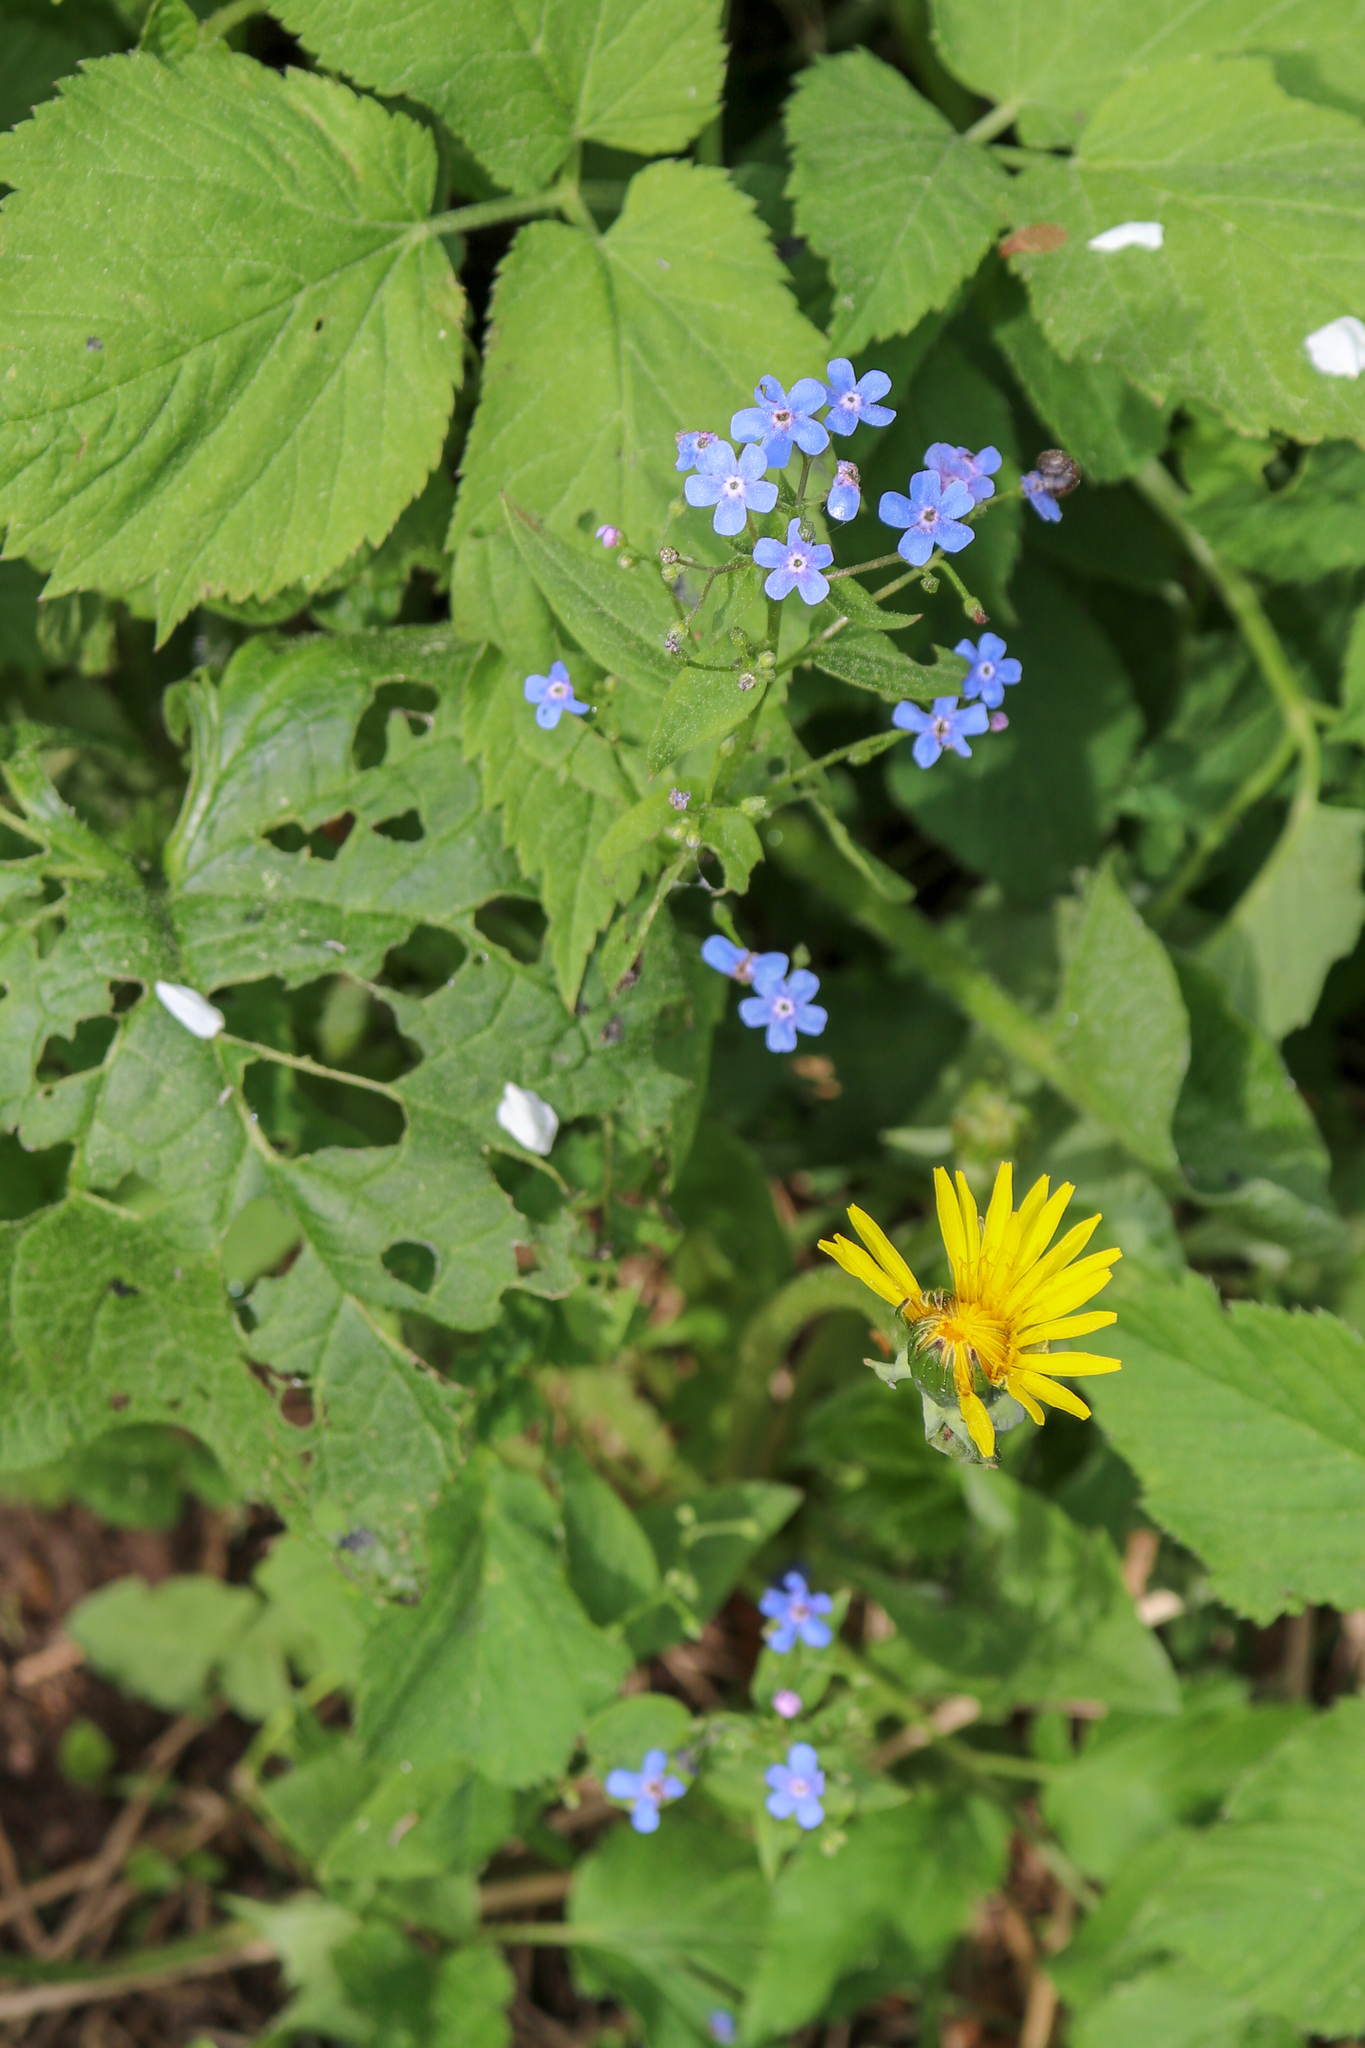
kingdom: Plantae
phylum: Tracheophyta
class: Magnoliopsida
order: Boraginales
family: Boraginaceae
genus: Brunnera
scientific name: Brunnera sibirica
